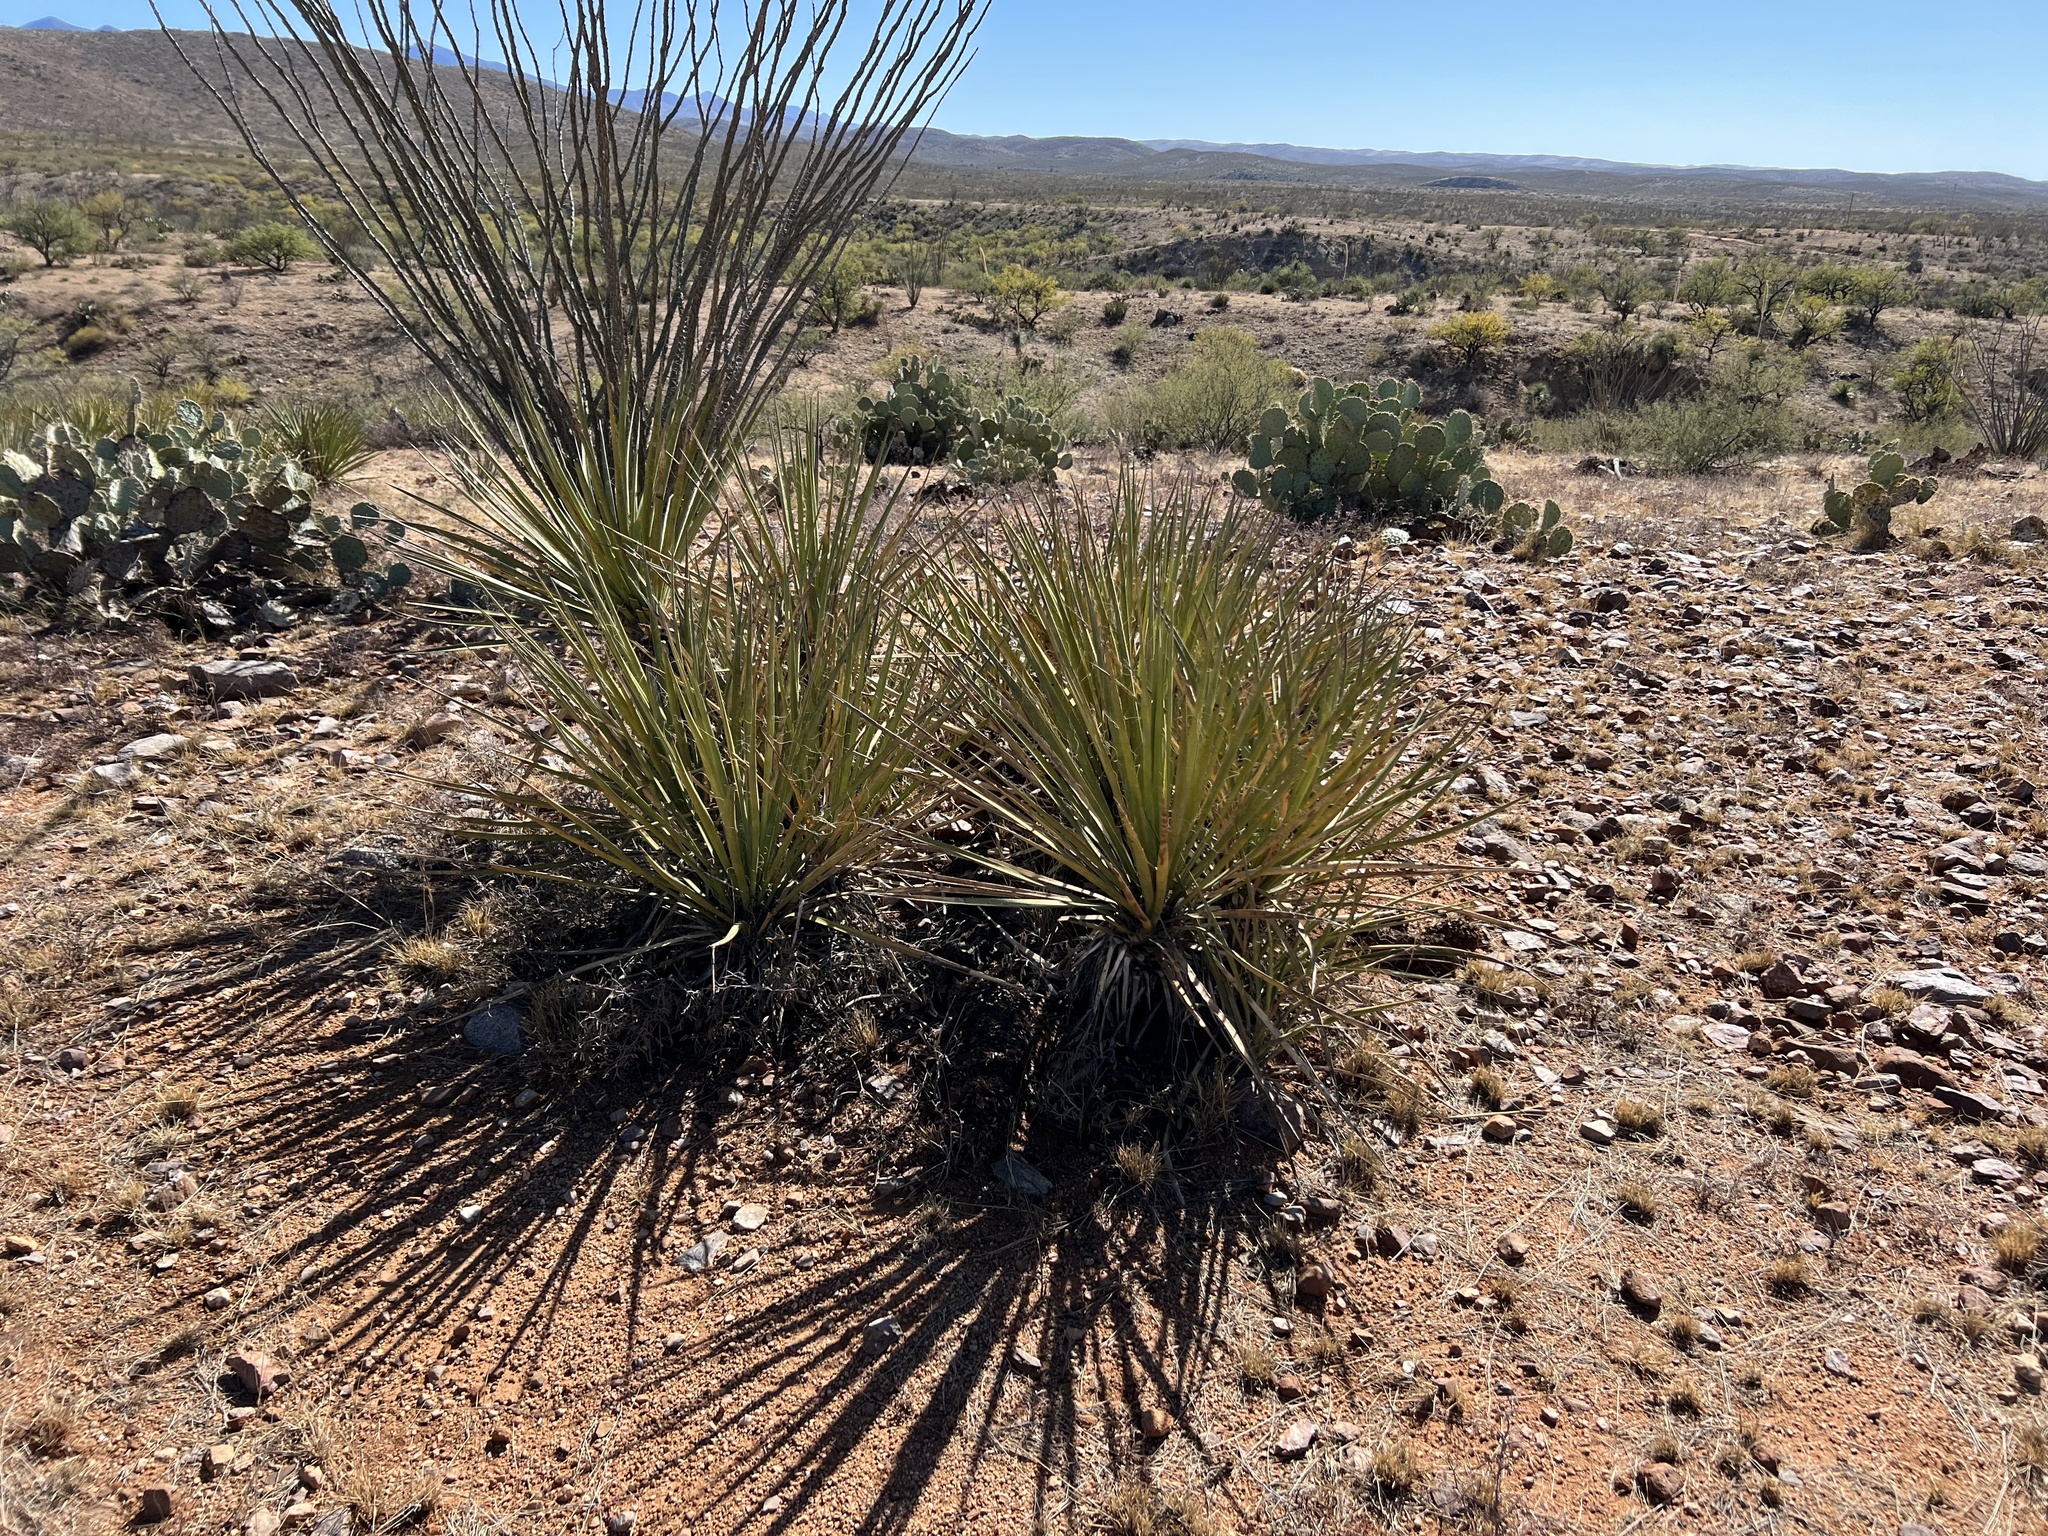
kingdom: Plantae
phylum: Tracheophyta
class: Liliopsida
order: Asparagales
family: Asparagaceae
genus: Yucca
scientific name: Yucca elata
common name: Palmella
